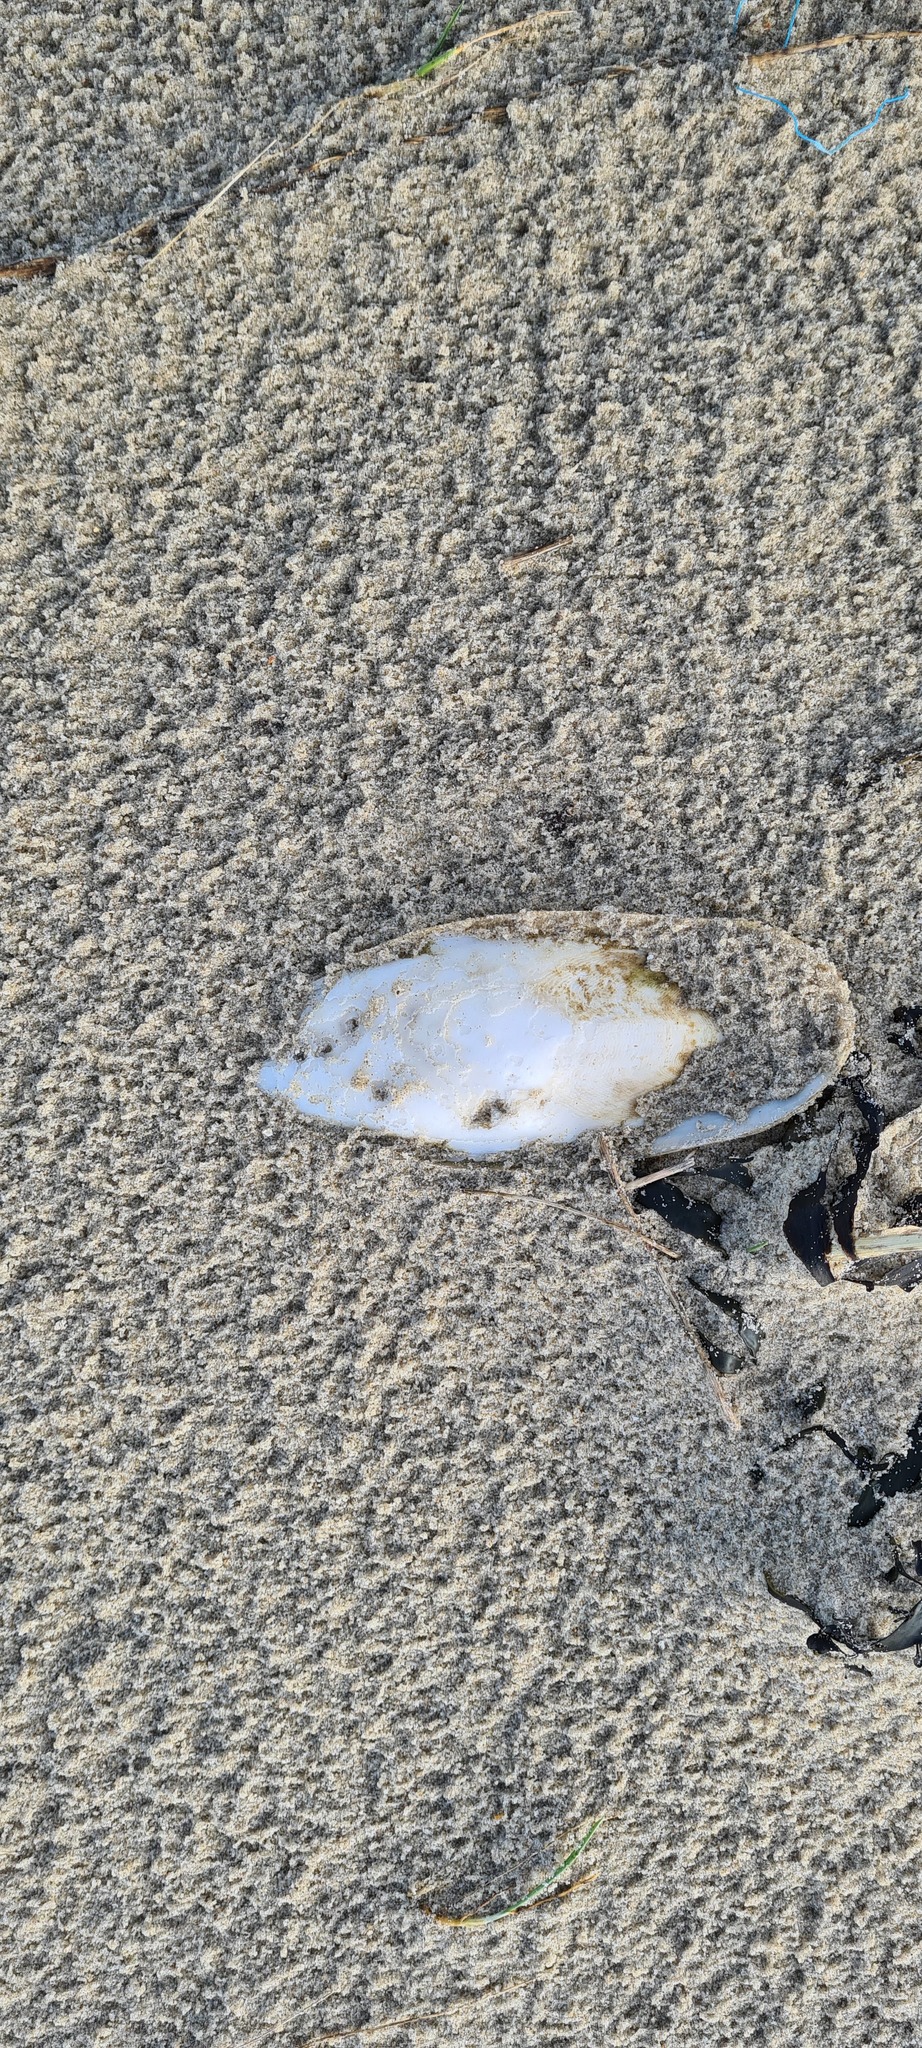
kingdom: Animalia
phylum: Mollusca
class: Cephalopoda
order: Sepiida
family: Sepiidae
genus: Sepia
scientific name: Sepia officinalis
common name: Common cuttlefish
